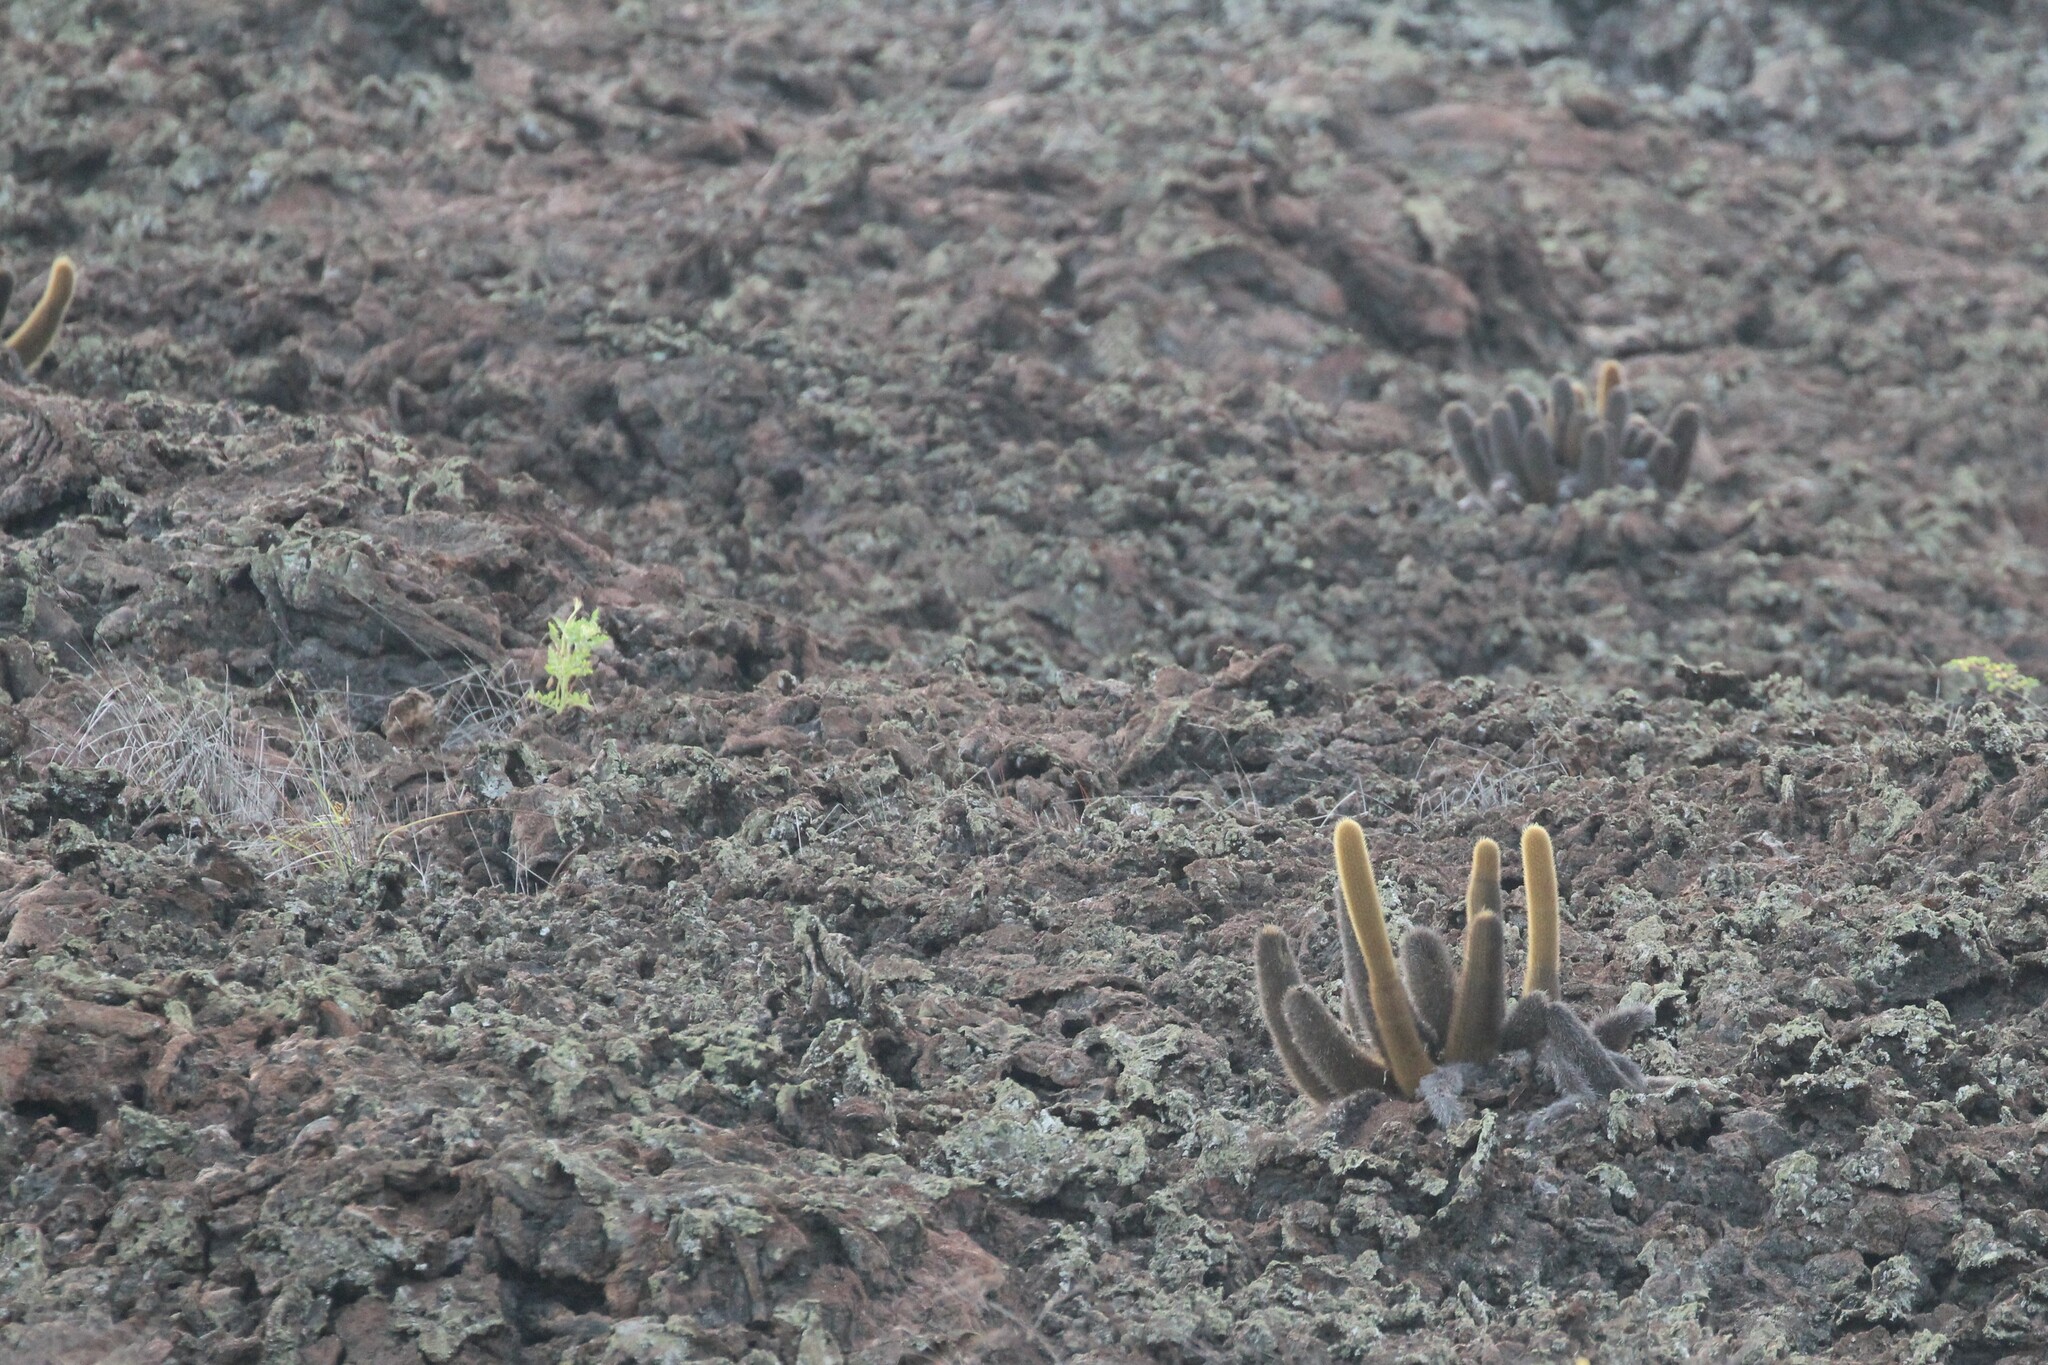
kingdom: Plantae
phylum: Tracheophyta
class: Magnoliopsida
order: Caryophyllales
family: Cactaceae
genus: Brachycereus
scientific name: Brachycereus nesioticus
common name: Lava cactus
